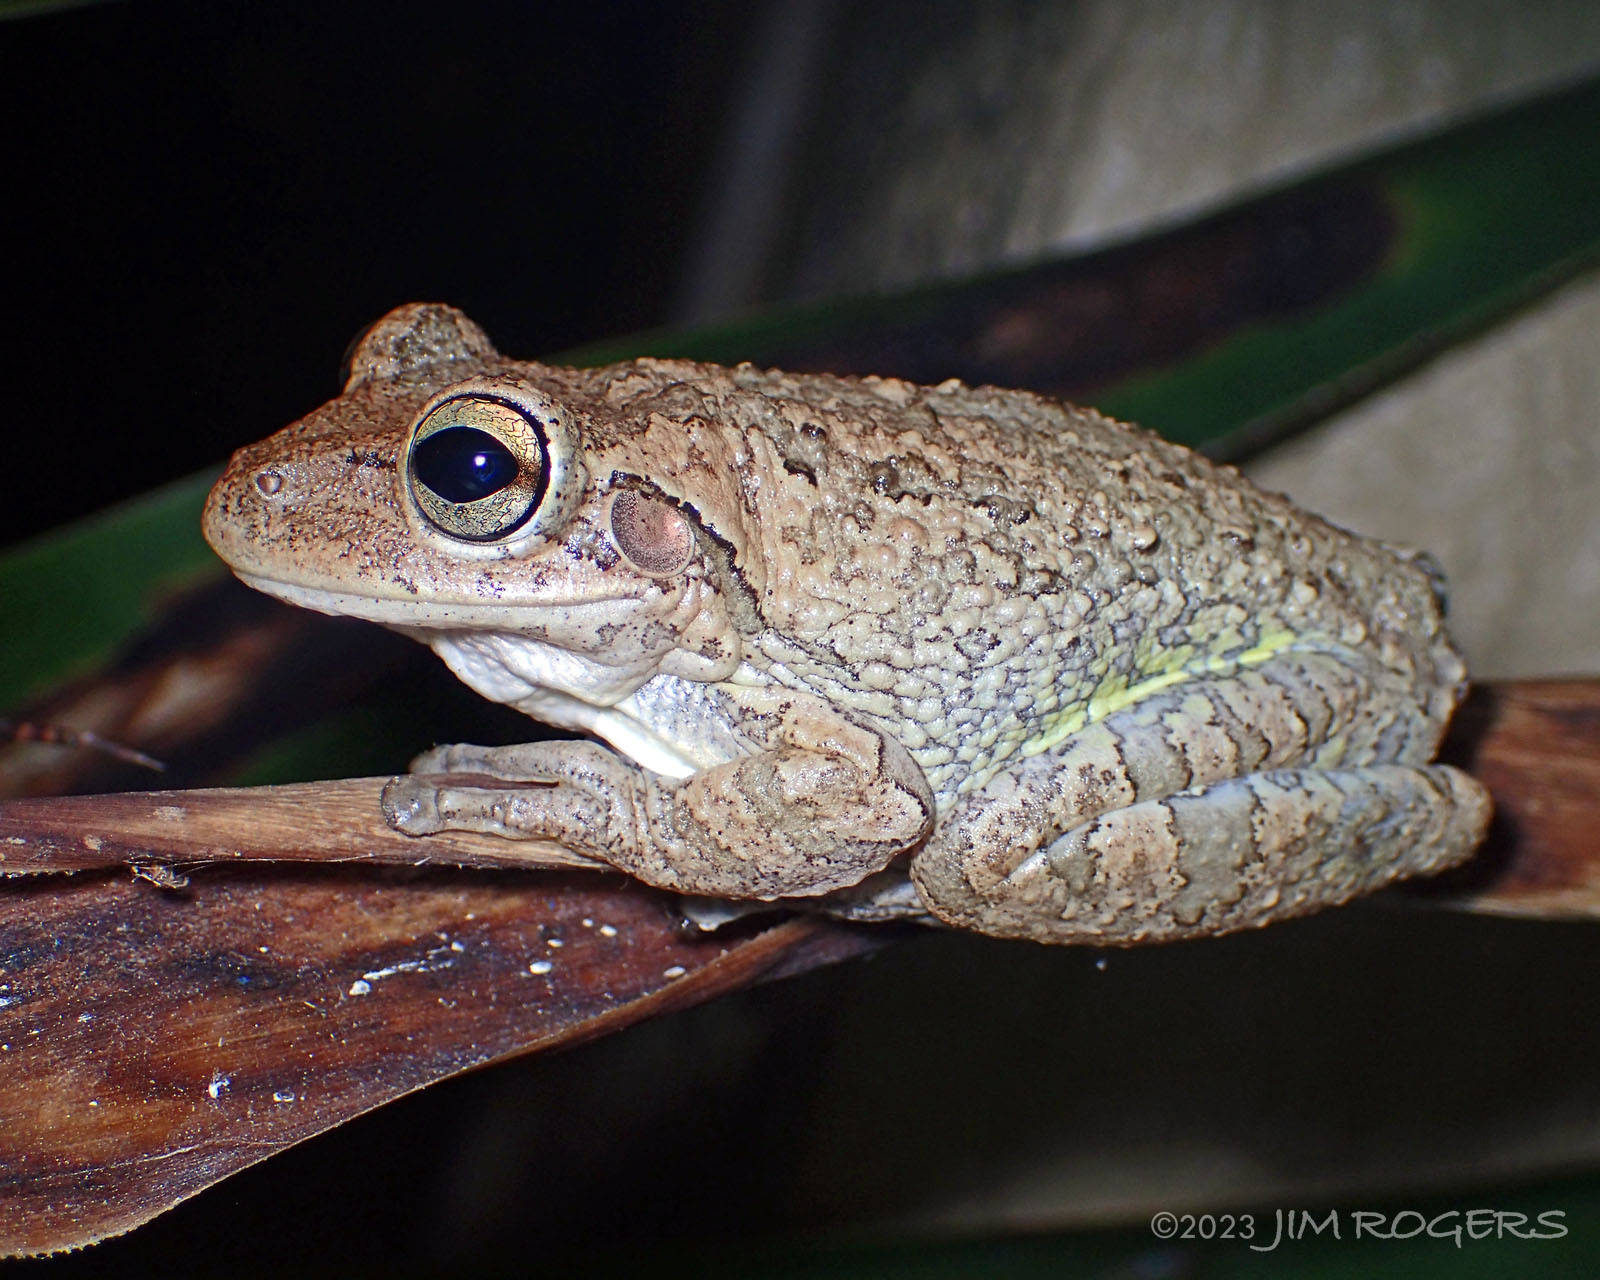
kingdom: Animalia
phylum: Chordata
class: Amphibia
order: Anura
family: Hylidae
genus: Osteopilus
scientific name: Osteopilus septentrionalis
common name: Cuban treefrog
